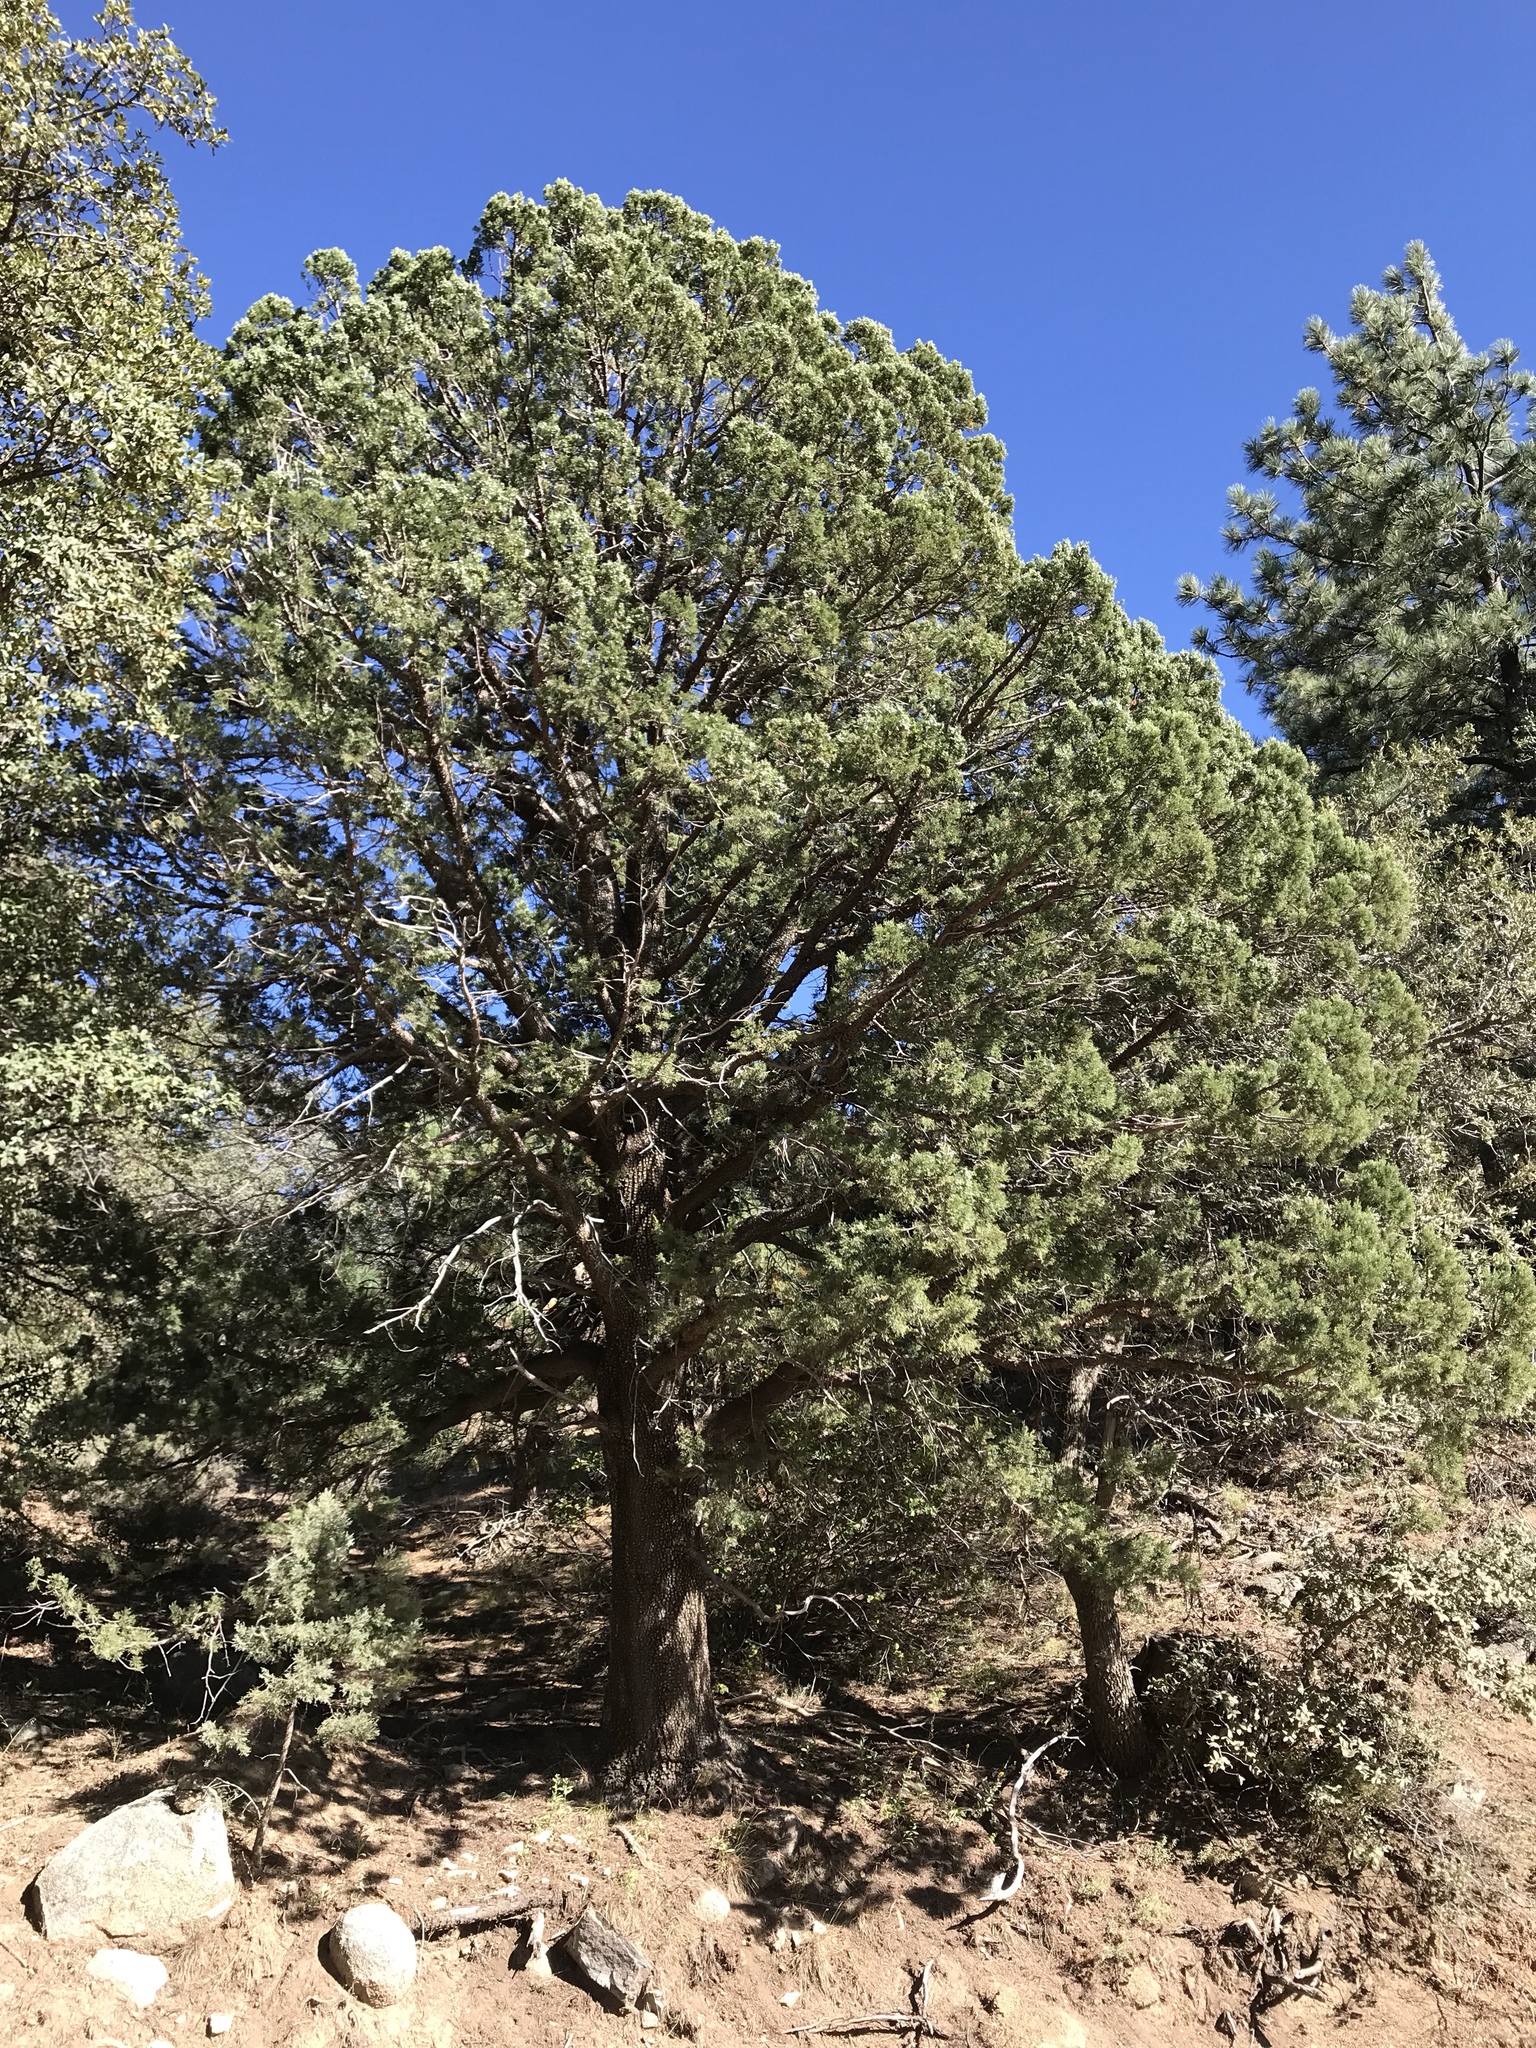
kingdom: Plantae
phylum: Tracheophyta
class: Pinopsida
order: Pinales
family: Cupressaceae
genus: Juniperus
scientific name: Juniperus deppeana
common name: Alligator juniper
